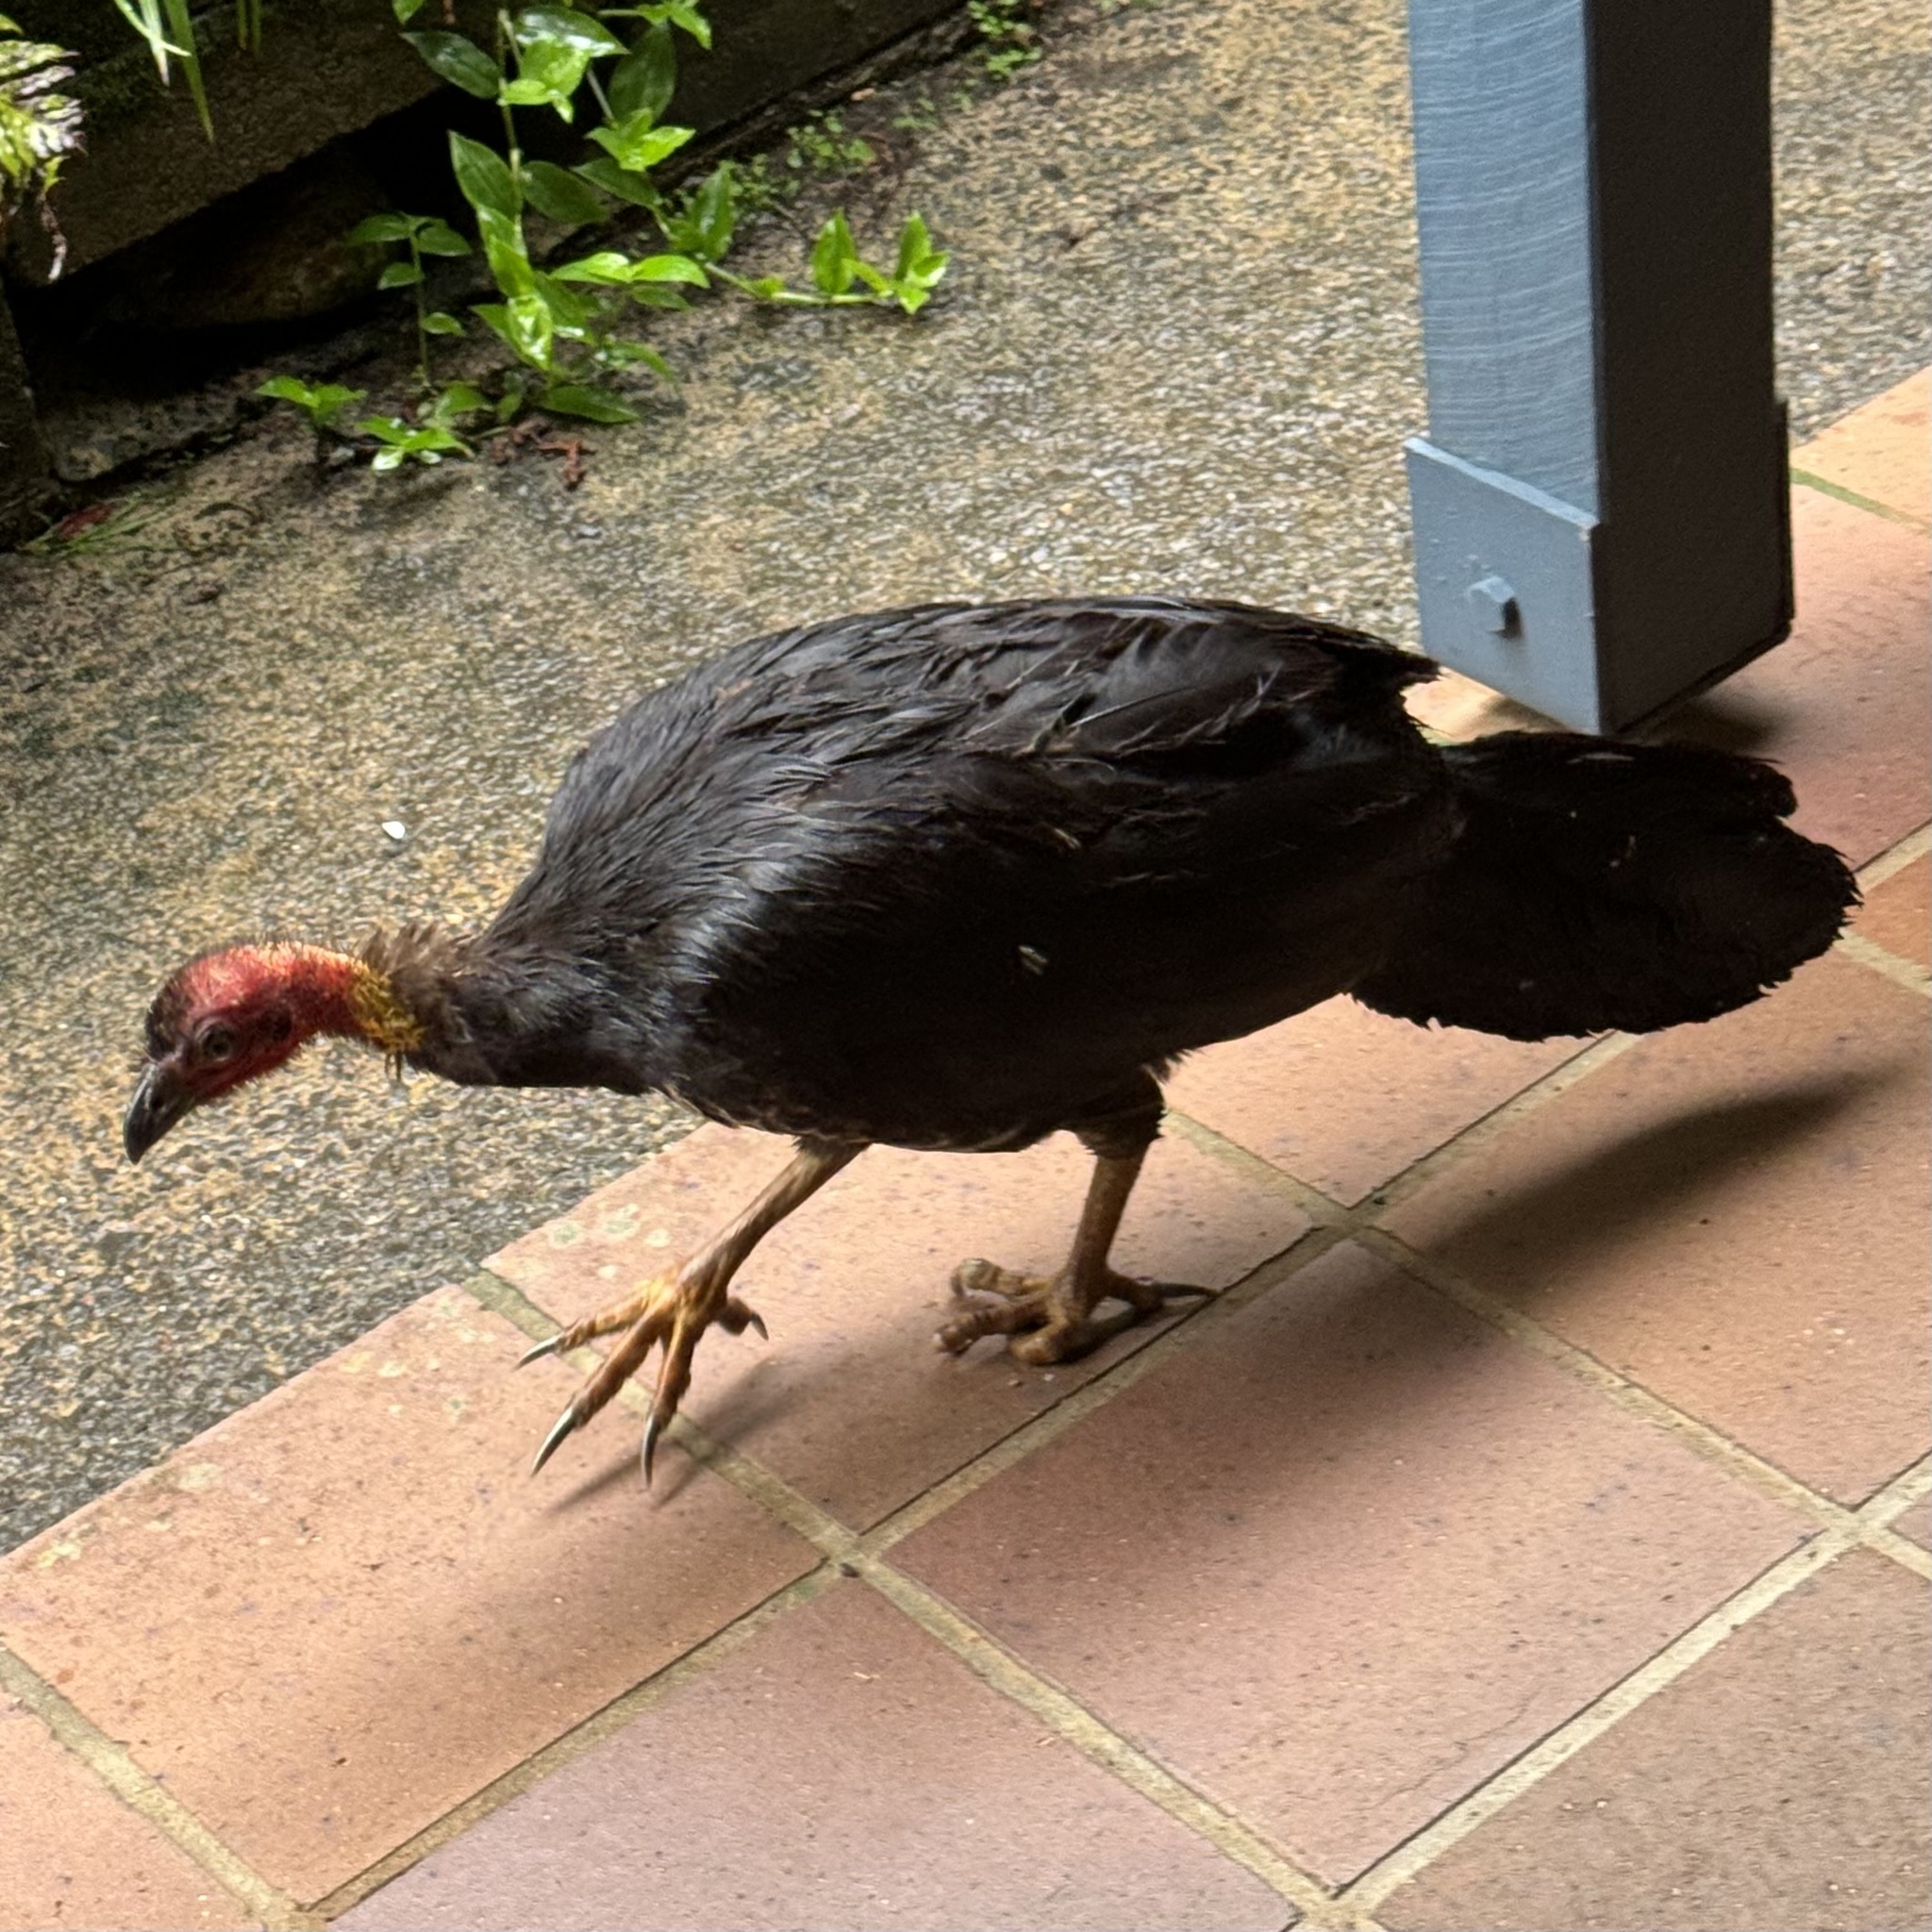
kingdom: Animalia
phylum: Chordata
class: Aves
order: Galliformes
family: Megapodiidae
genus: Alectura
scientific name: Alectura lathami
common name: Australian brushturkey
